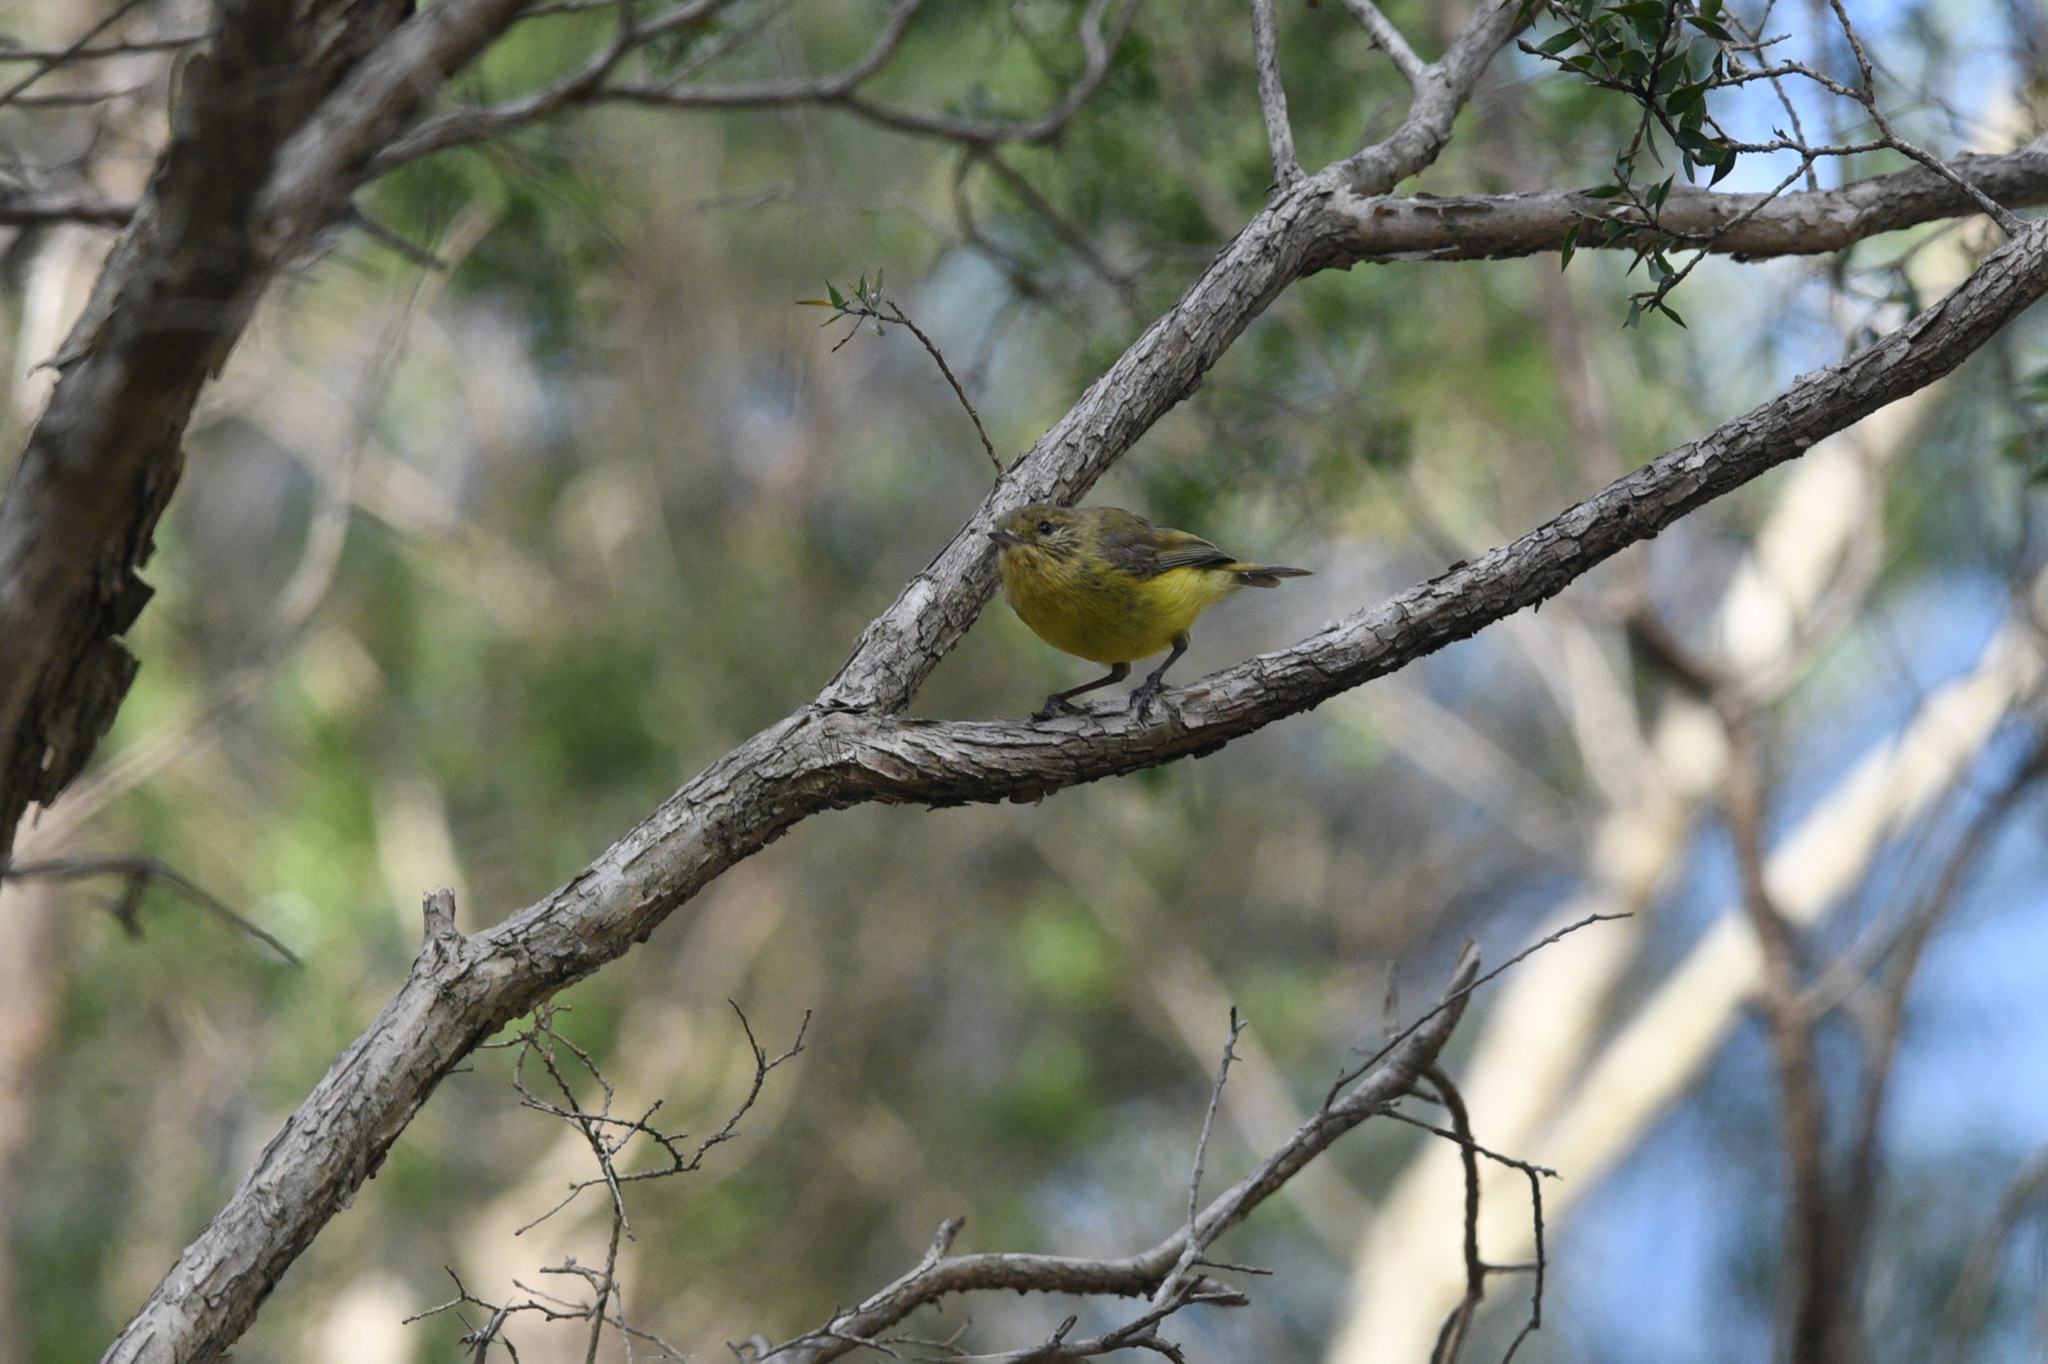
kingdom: Animalia
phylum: Chordata
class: Aves
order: Passeriformes
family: Acanthizidae
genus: Acanthiza
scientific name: Acanthiza nana
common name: Yellow thornbill
